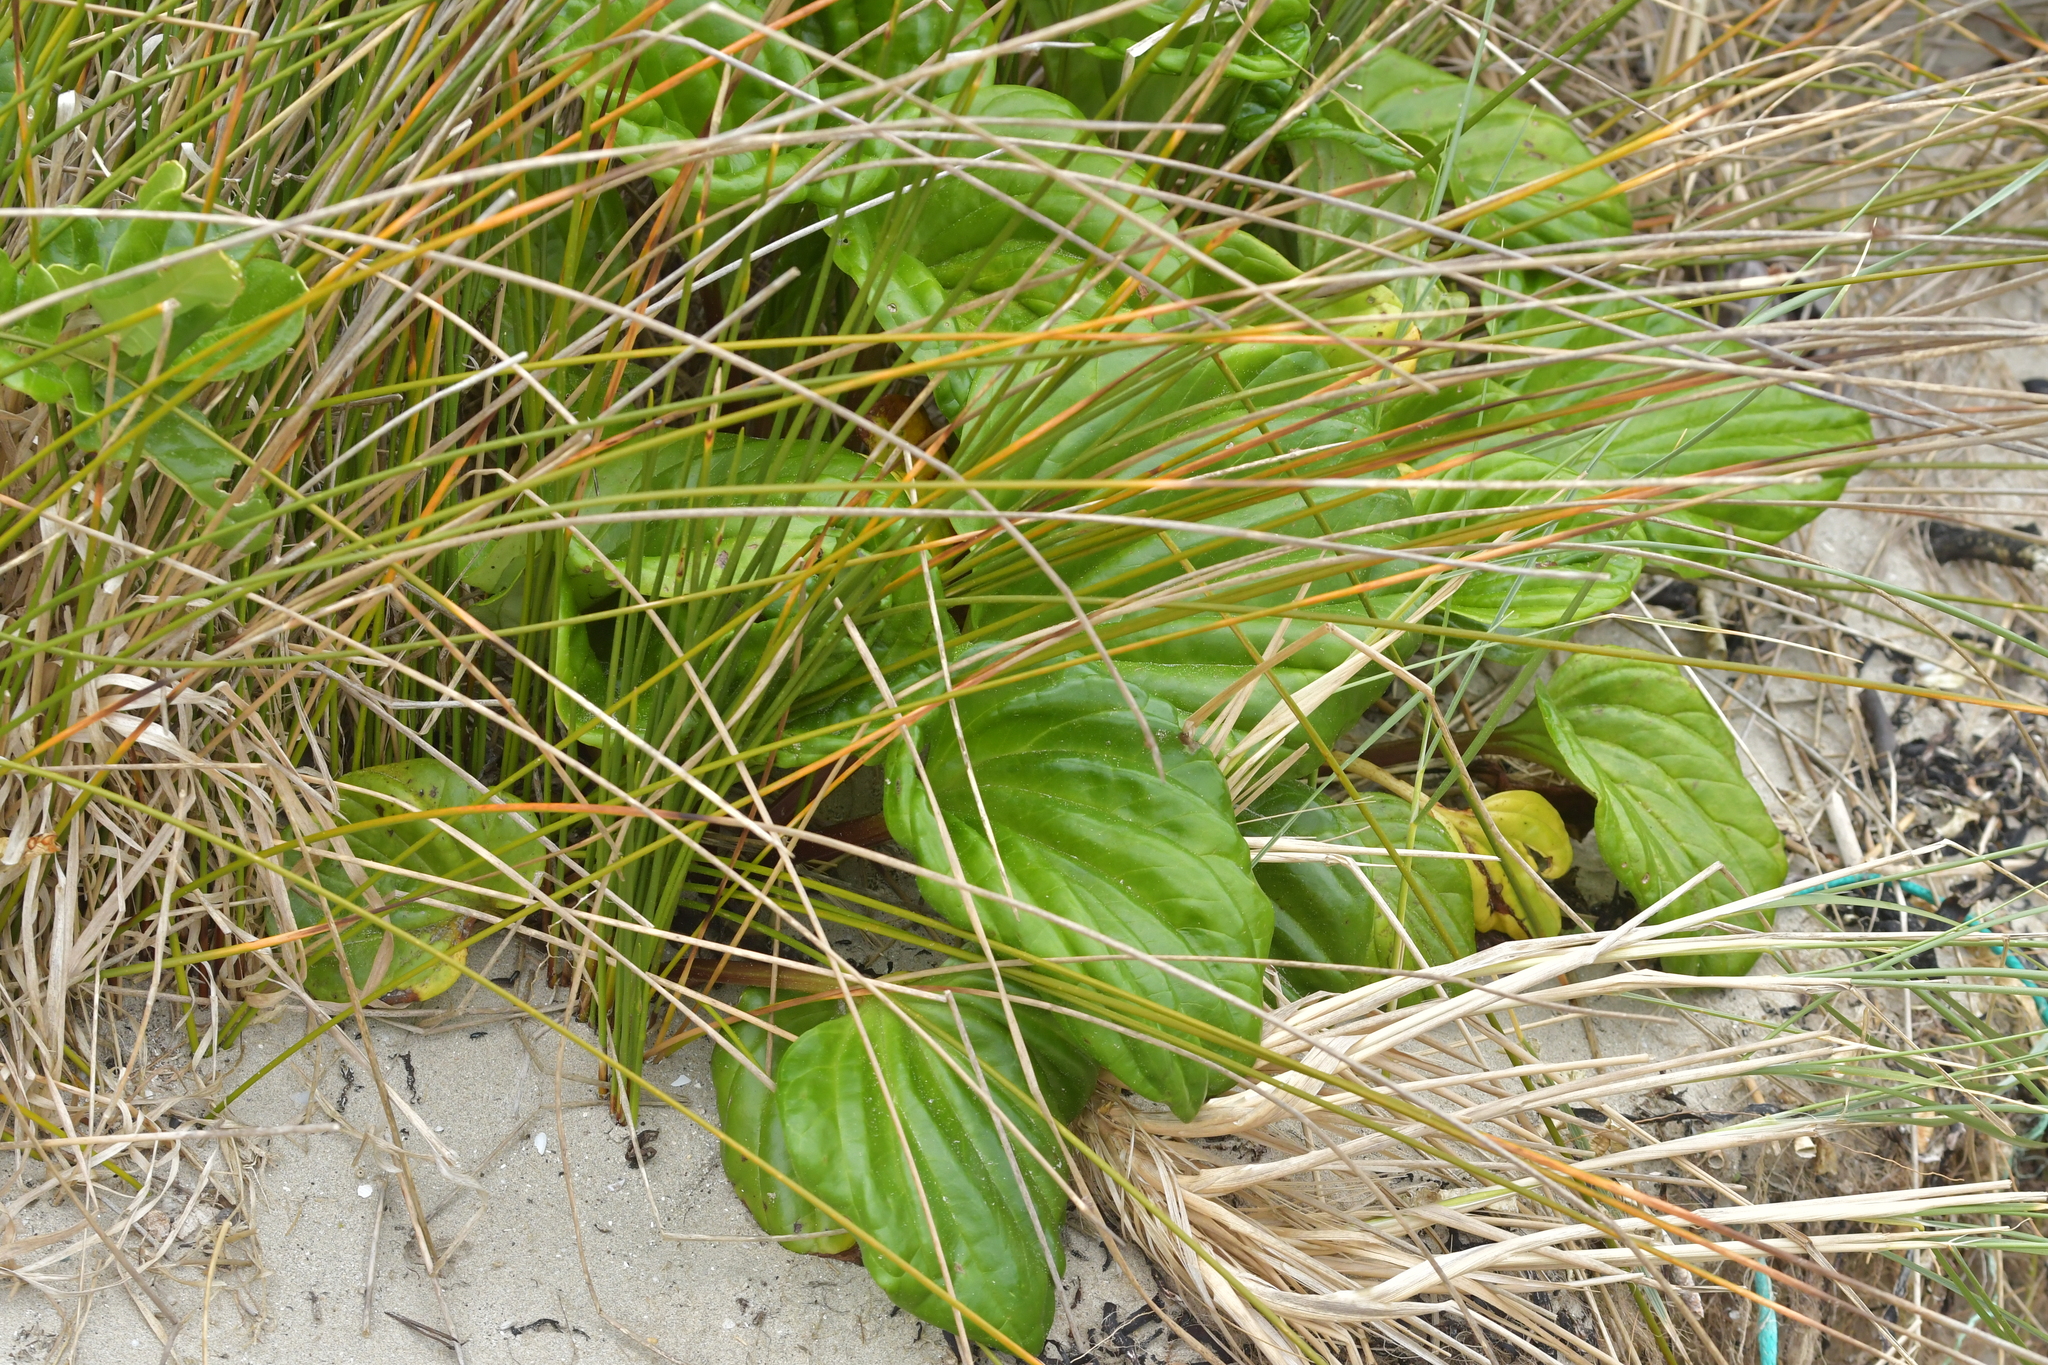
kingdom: Plantae
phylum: Tracheophyta
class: Magnoliopsida
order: Boraginales
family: Boraginaceae
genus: Myosotidium
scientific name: Myosotidium hortensia
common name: Giant forget-me-not
